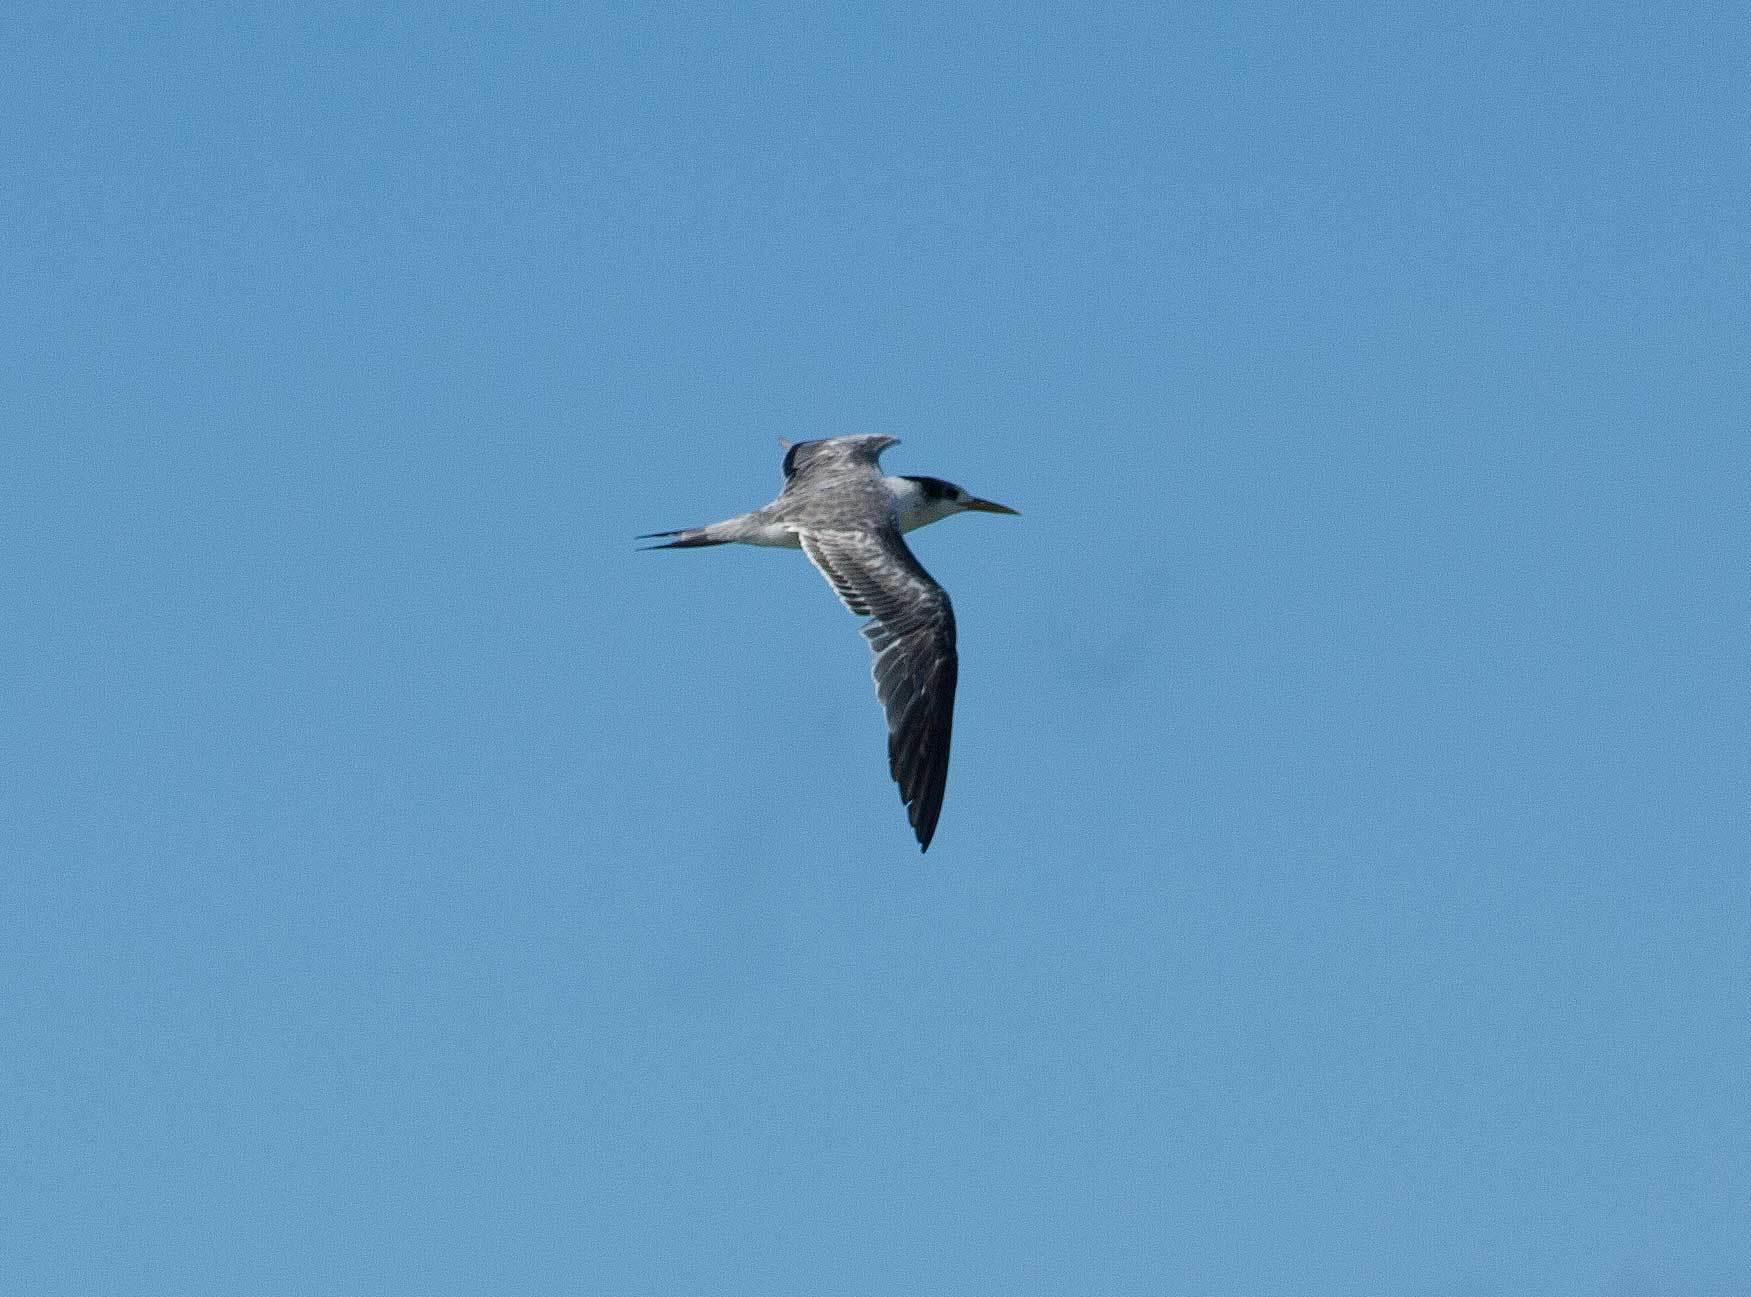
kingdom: Animalia
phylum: Chordata
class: Aves
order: Charadriiformes
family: Laridae
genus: Thalasseus
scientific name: Thalasseus bergii
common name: Greater crested tern
